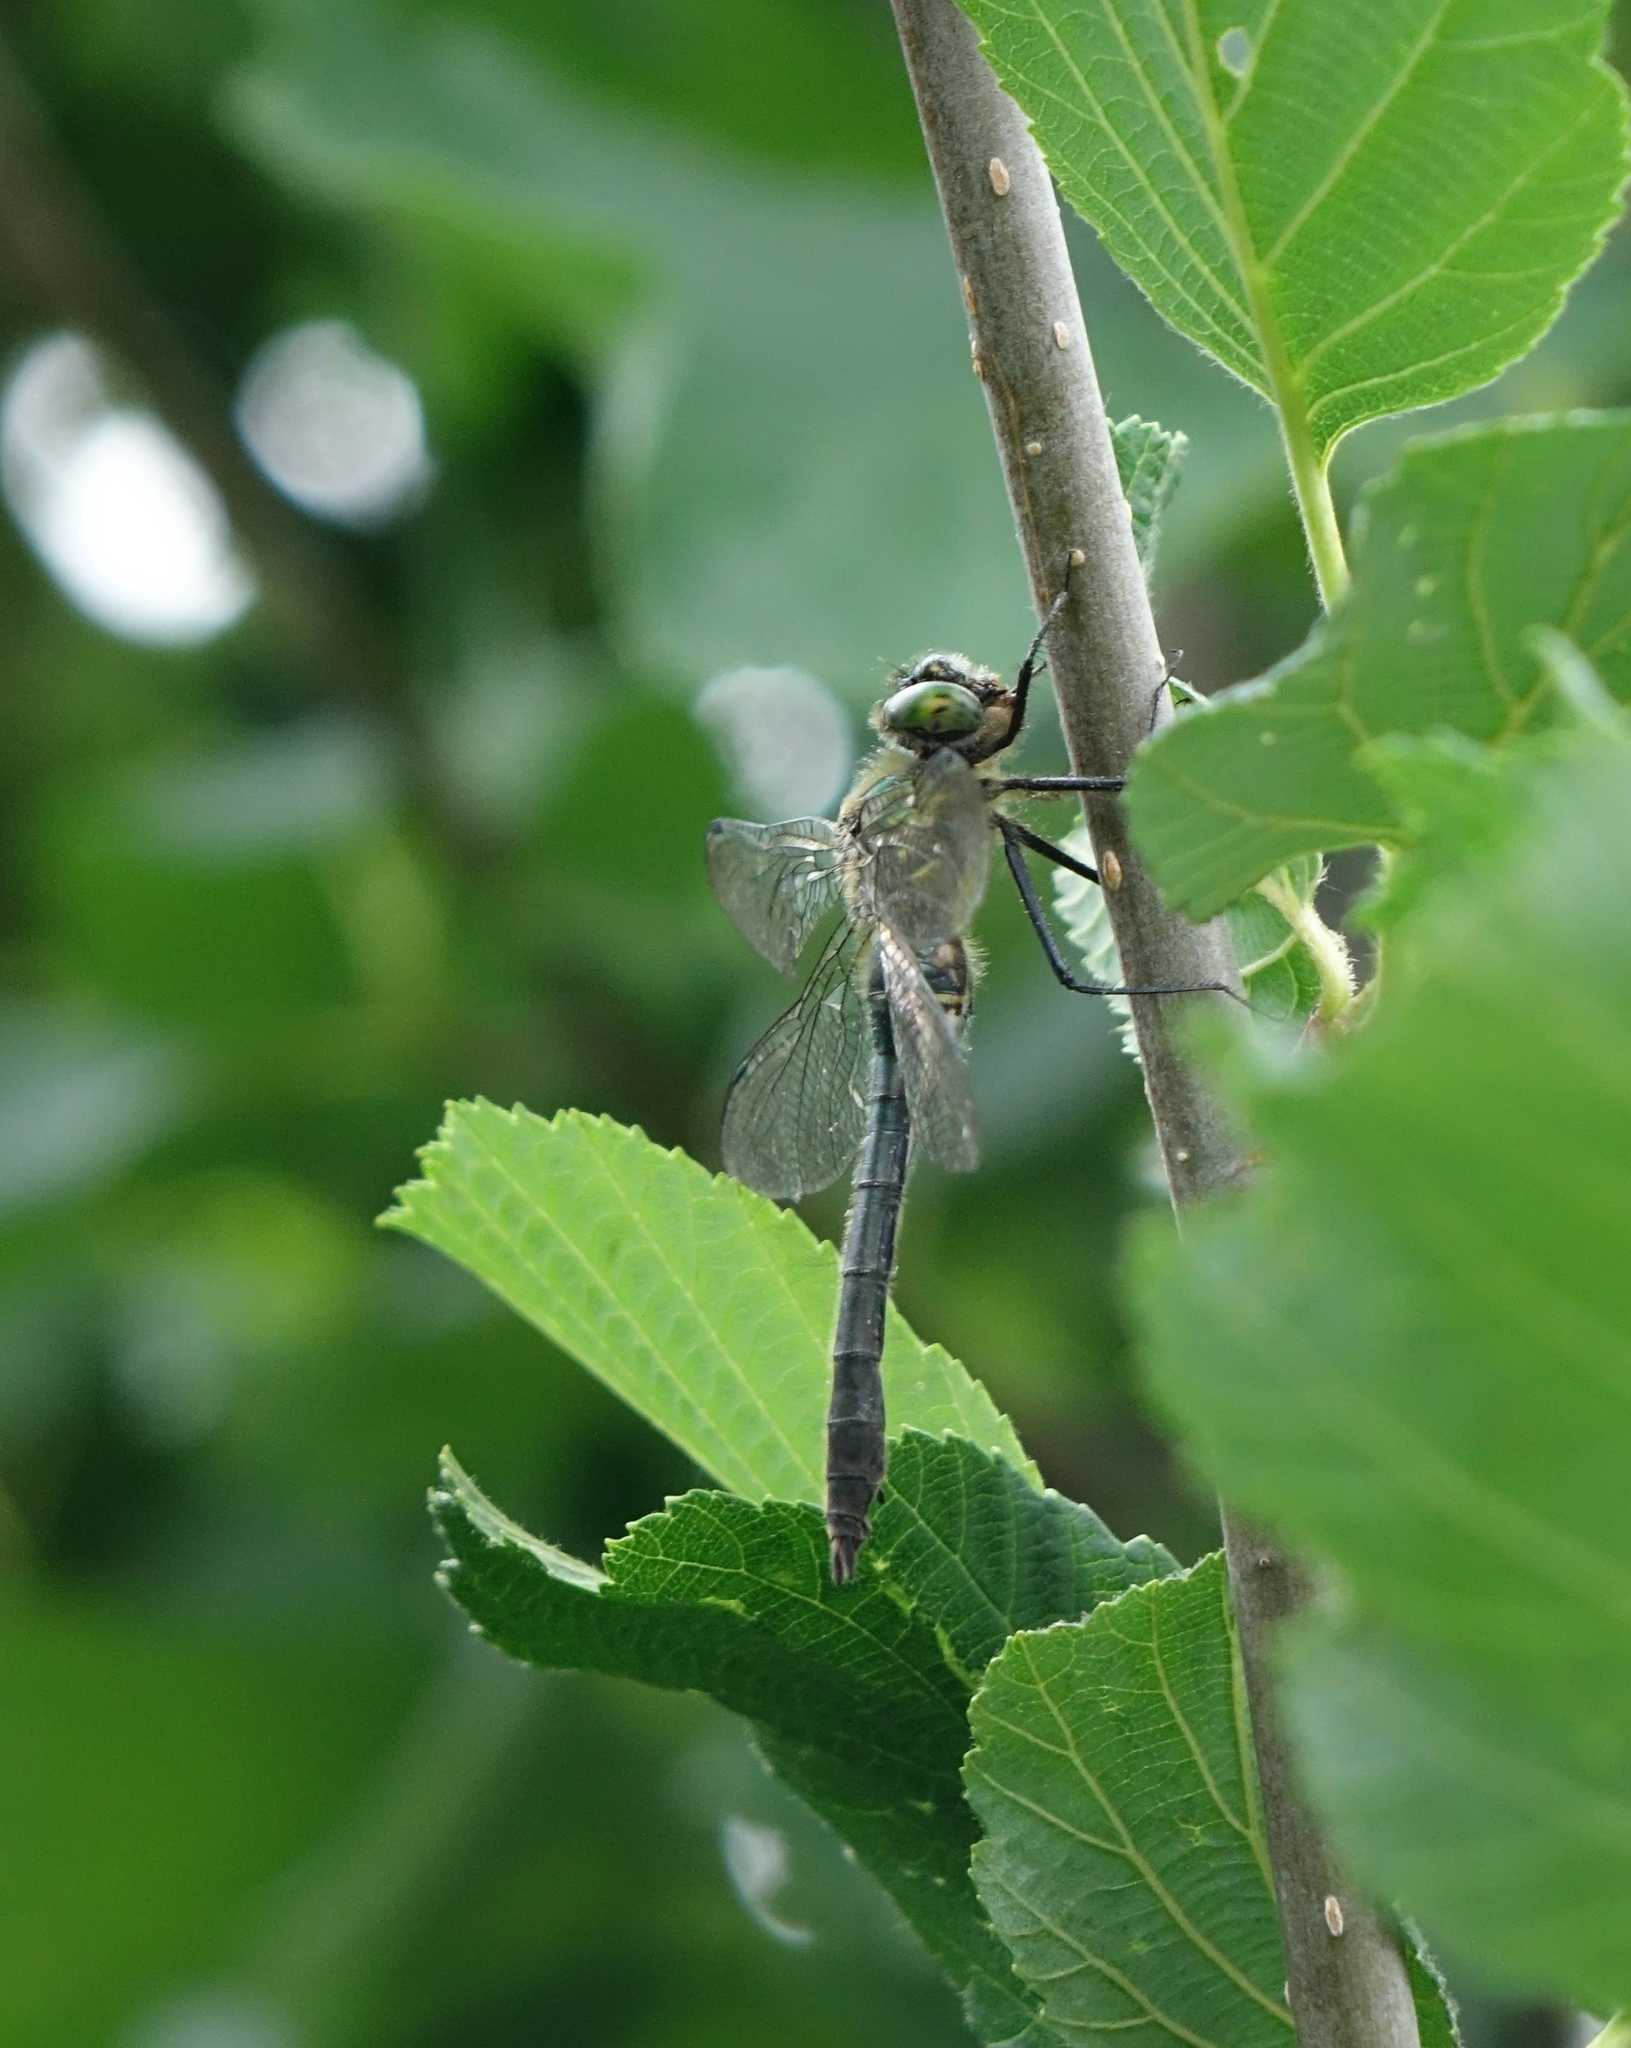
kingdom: Animalia
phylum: Arthropoda
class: Insecta
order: Odonata
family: Corduliidae
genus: Cordulia
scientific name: Cordulia aenea
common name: Downy emerald
